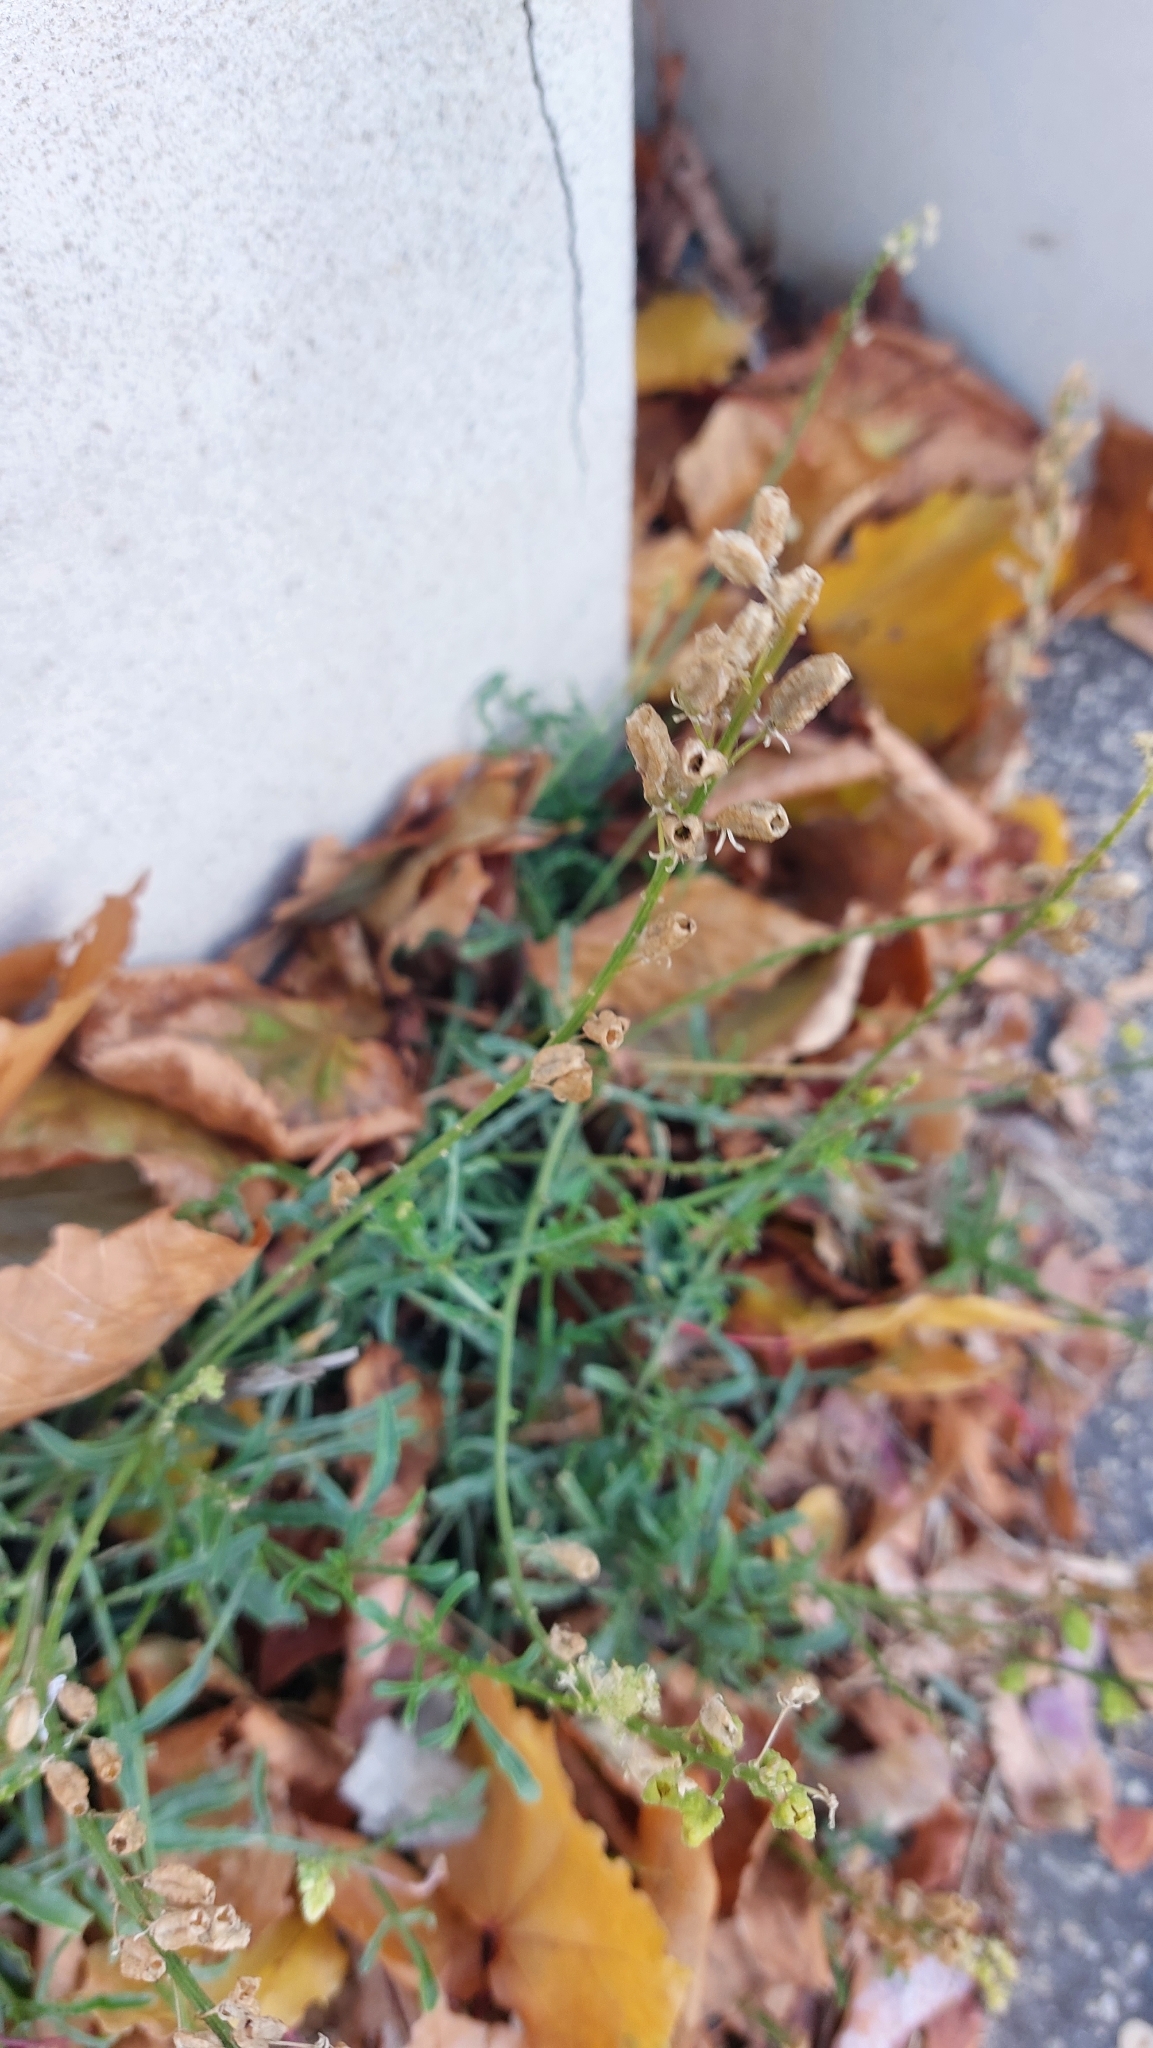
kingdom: Plantae
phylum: Tracheophyta
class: Magnoliopsida
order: Brassicales
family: Resedaceae
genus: Reseda
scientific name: Reseda lutea
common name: Wild mignonette
